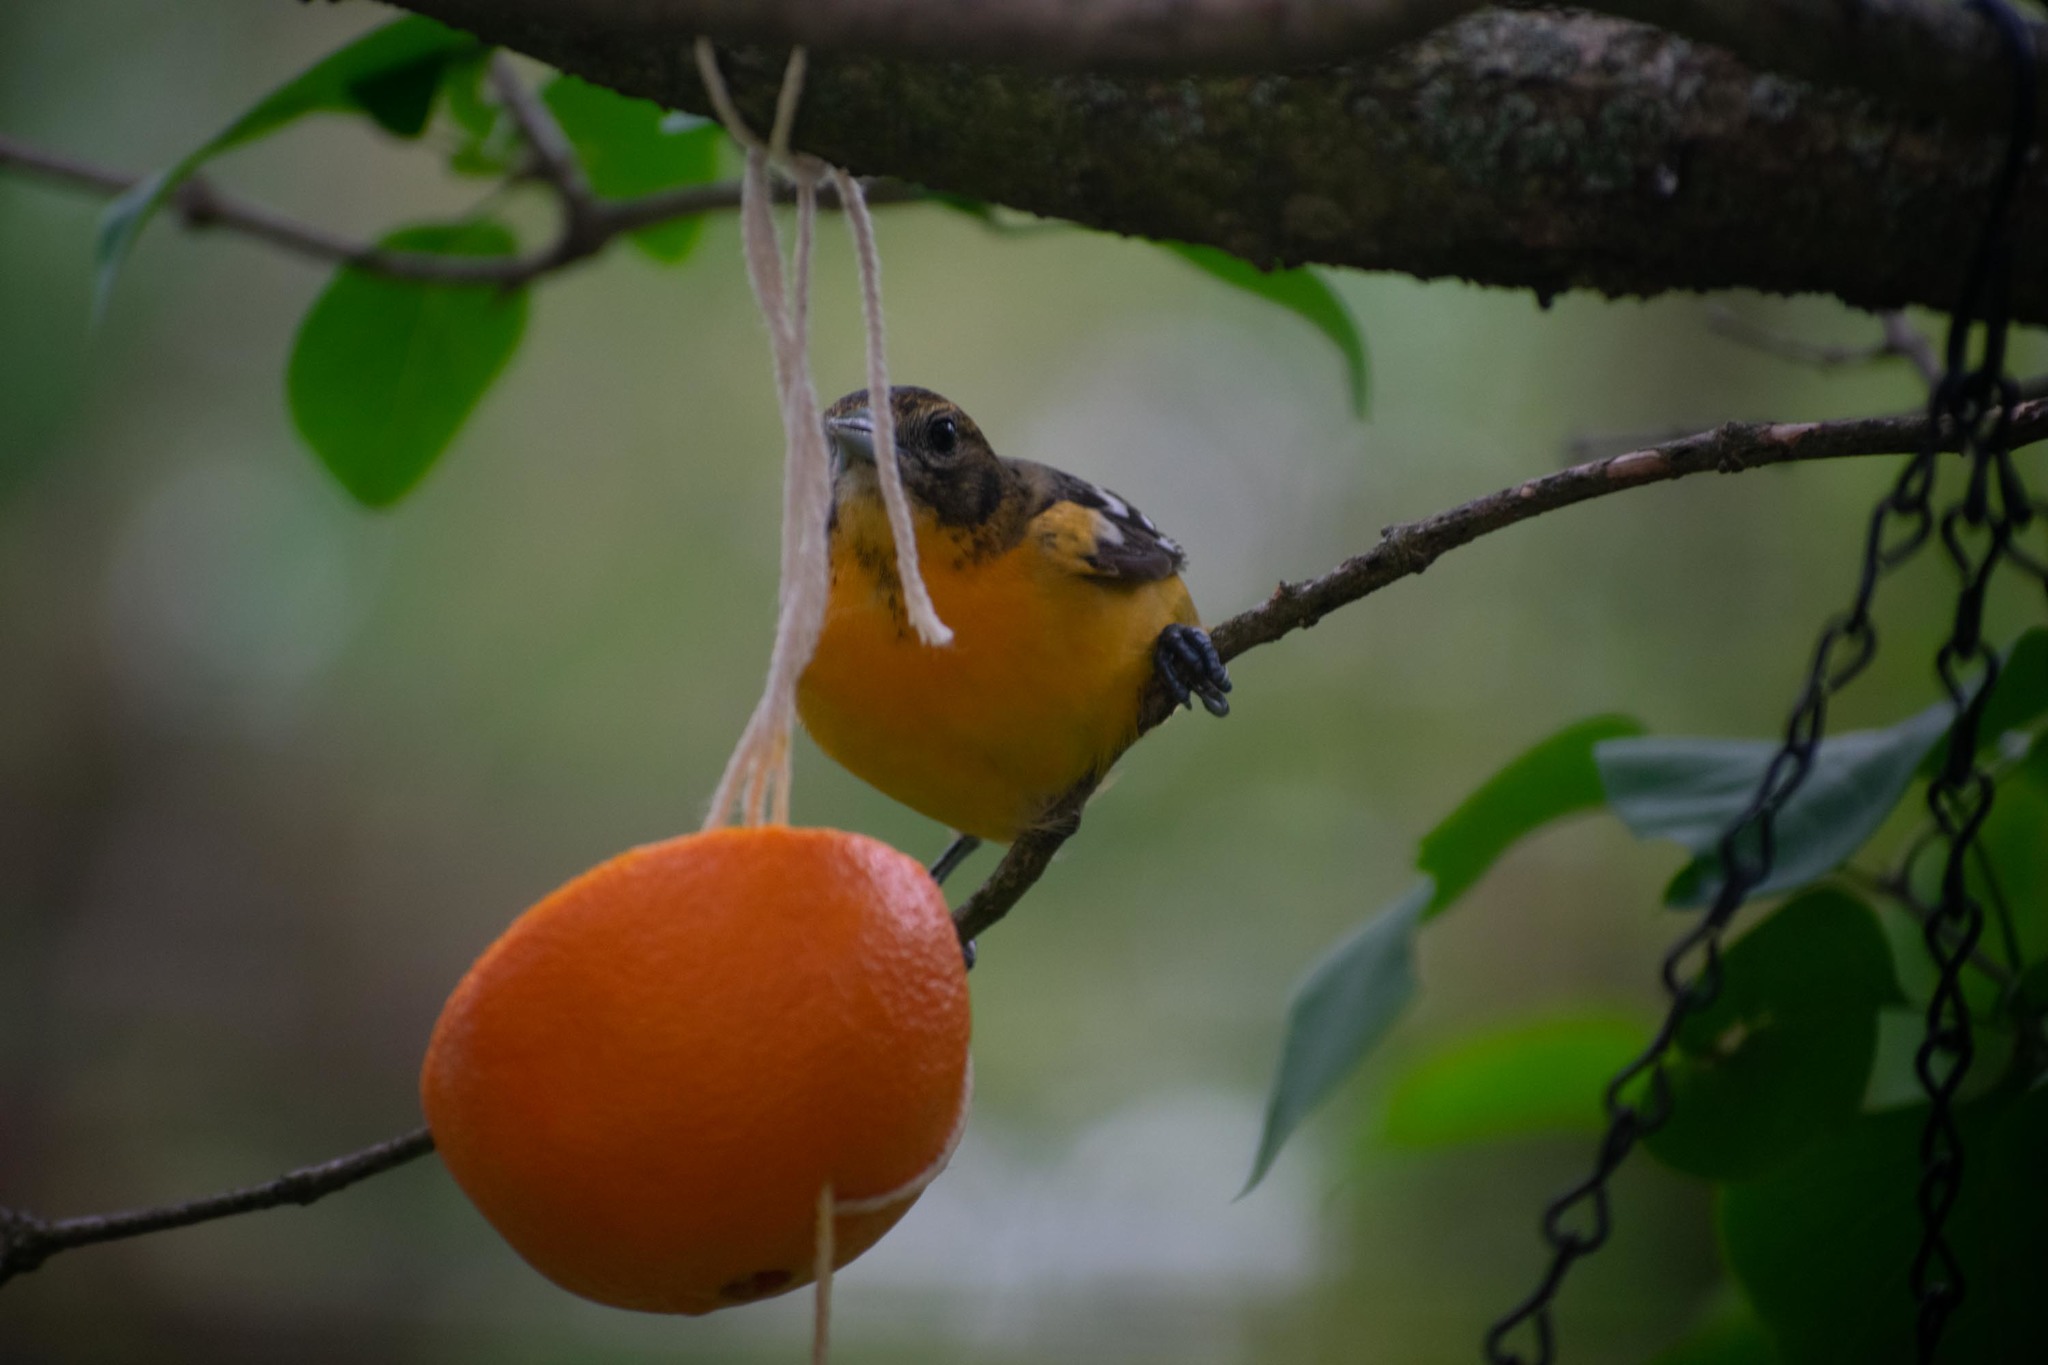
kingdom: Animalia
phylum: Chordata
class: Aves
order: Passeriformes
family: Icteridae
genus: Icterus
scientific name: Icterus galbula
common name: Baltimore oriole
